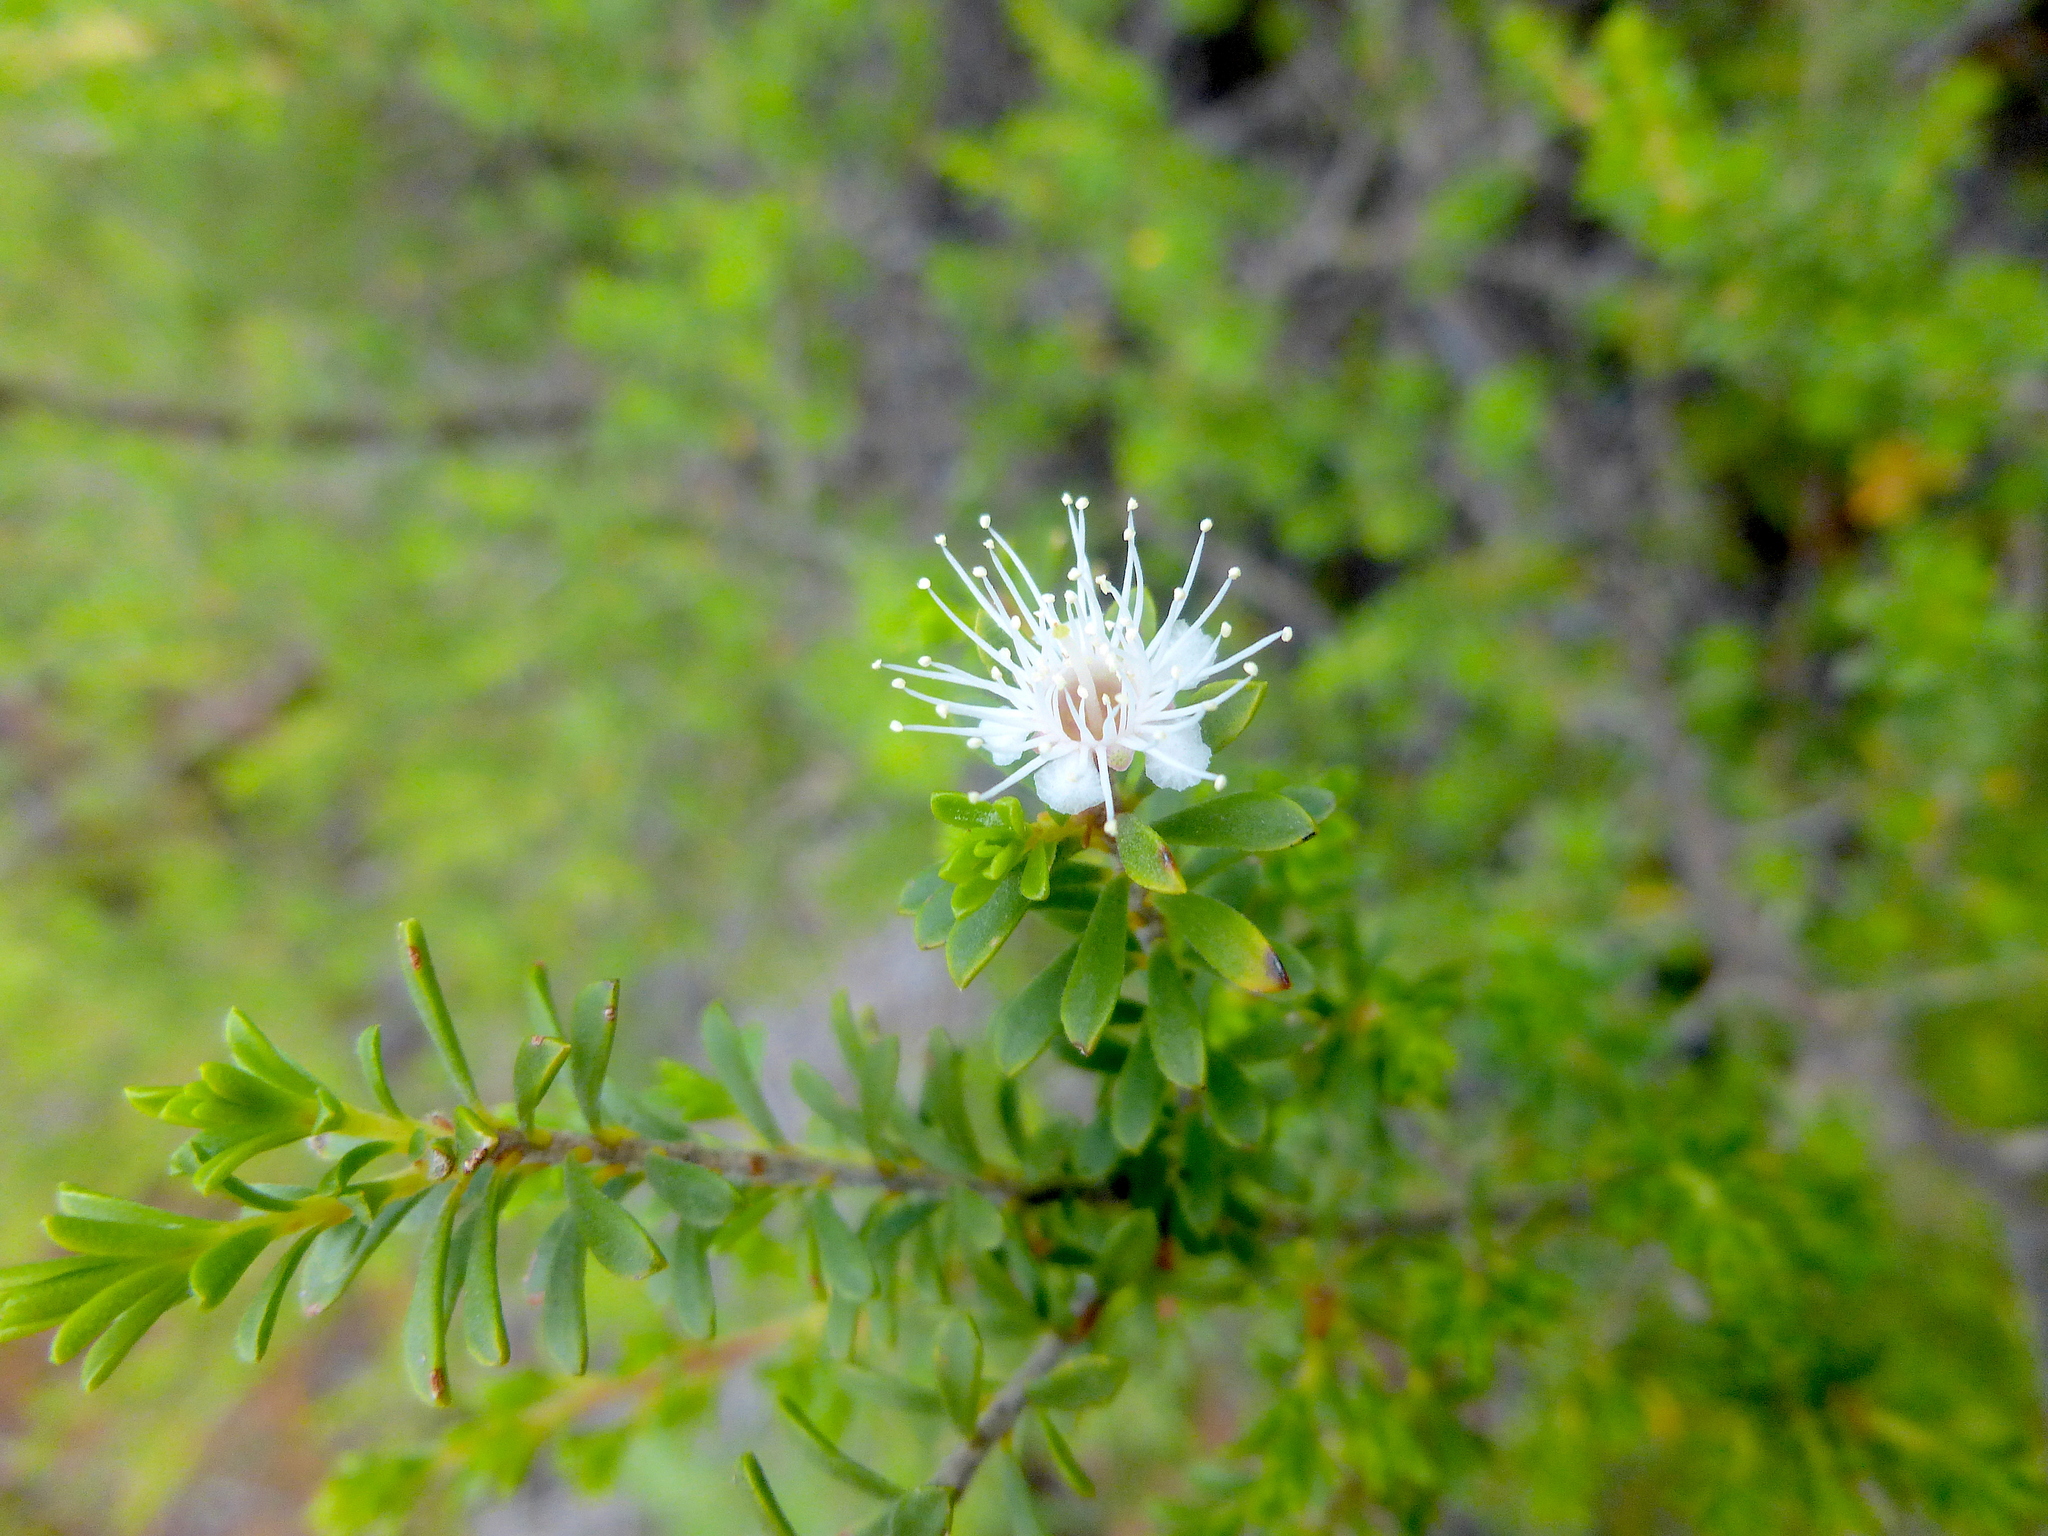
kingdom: Plantae
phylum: Tracheophyta
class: Magnoliopsida
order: Myrtales
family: Myrtaceae
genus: Kunzea
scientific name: Kunzea ambigua
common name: Tickbush
